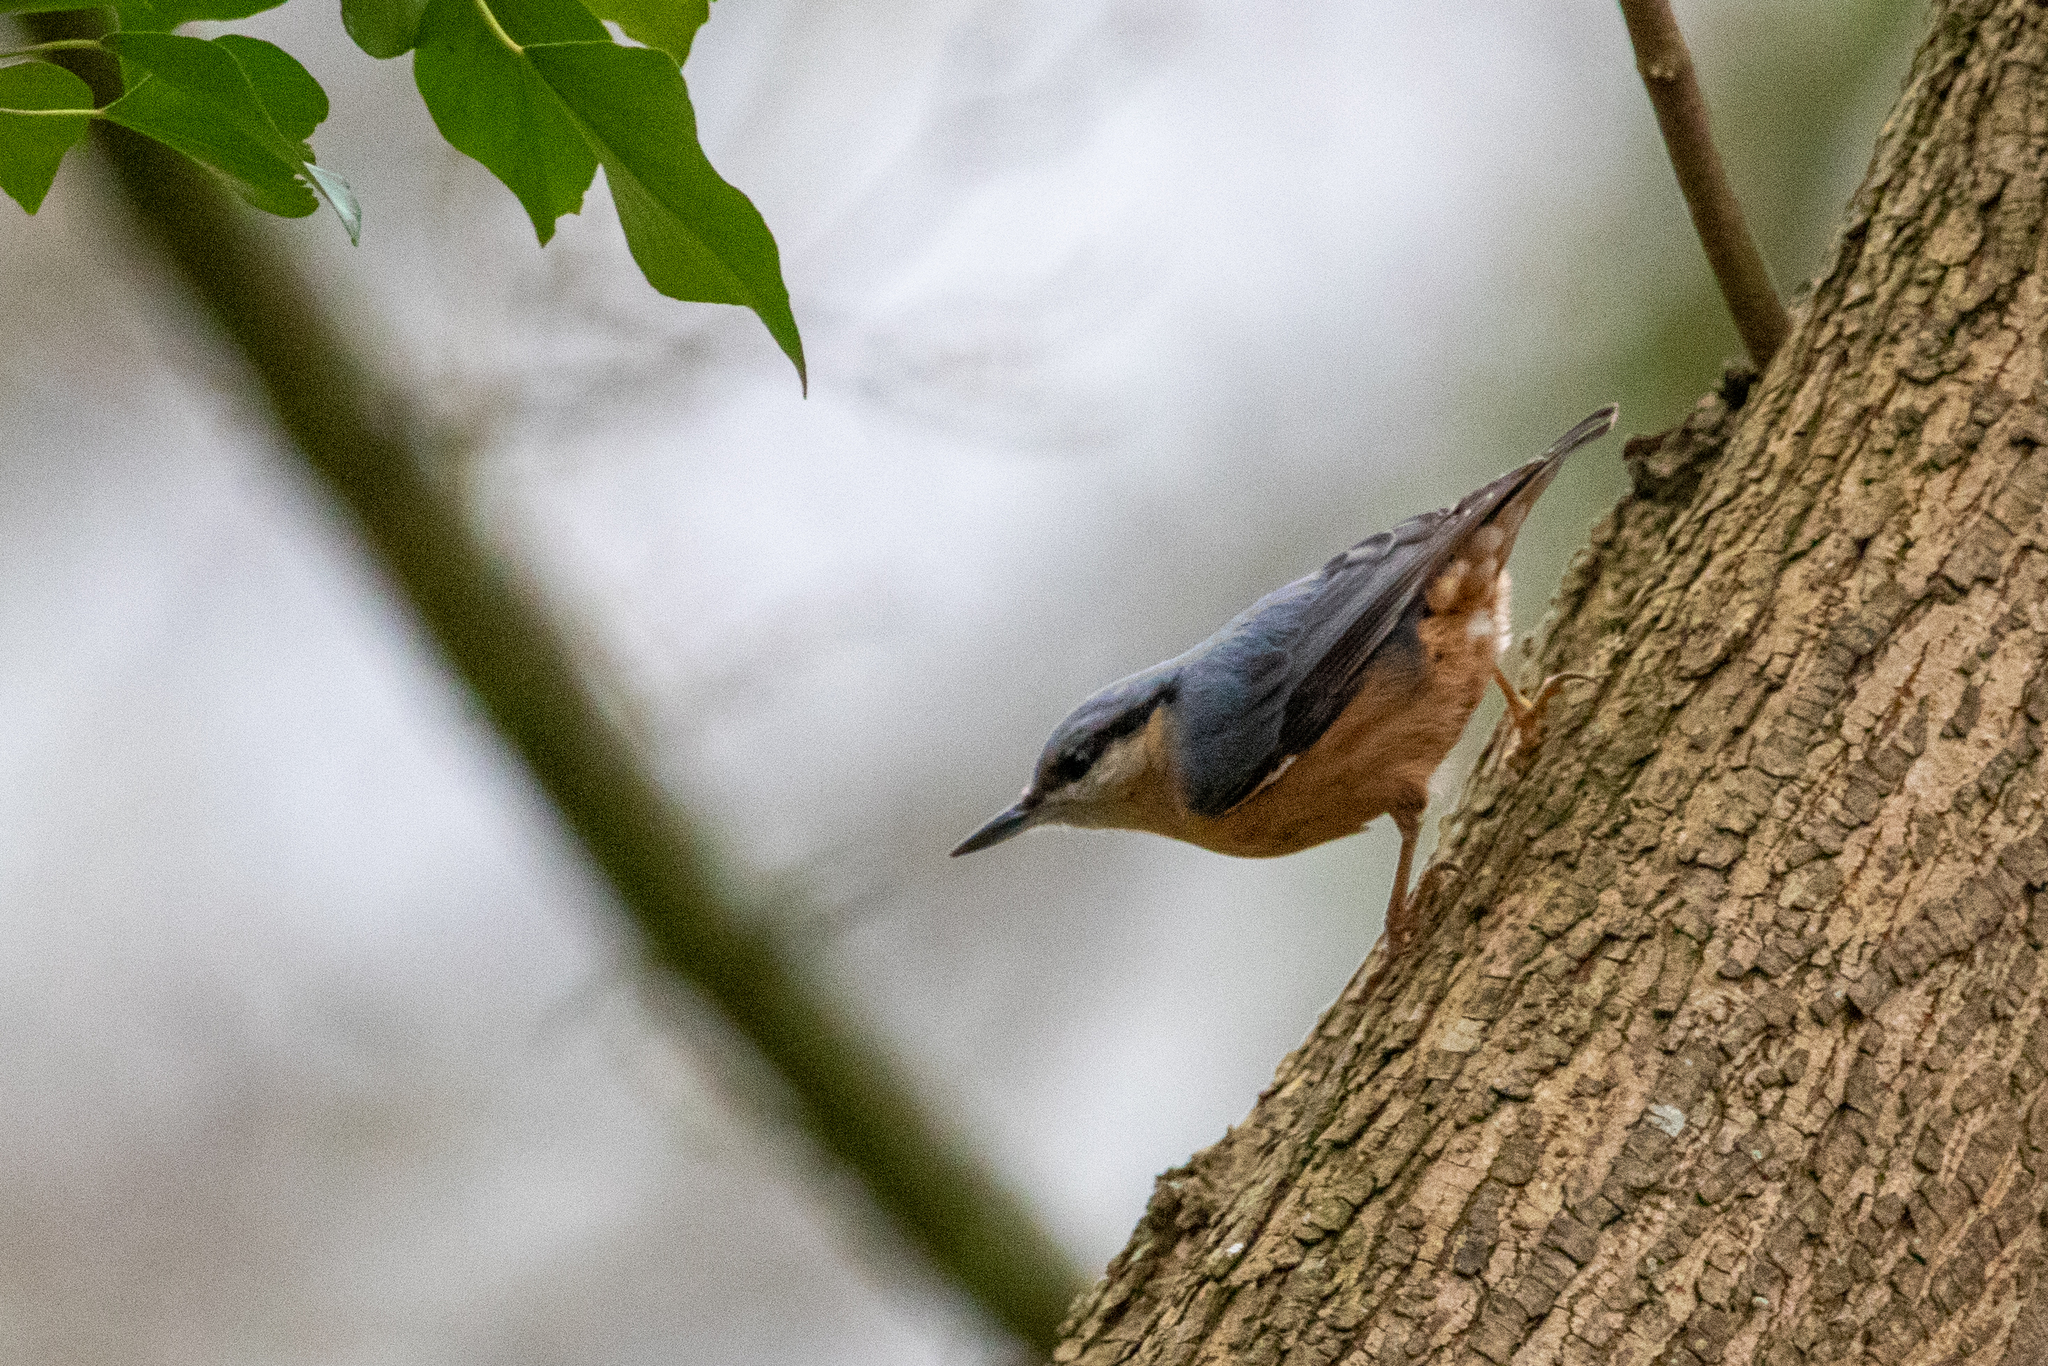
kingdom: Animalia
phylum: Chordata
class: Aves
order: Passeriformes
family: Sittidae
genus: Sitta
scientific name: Sitta europaea
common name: Eurasian nuthatch
